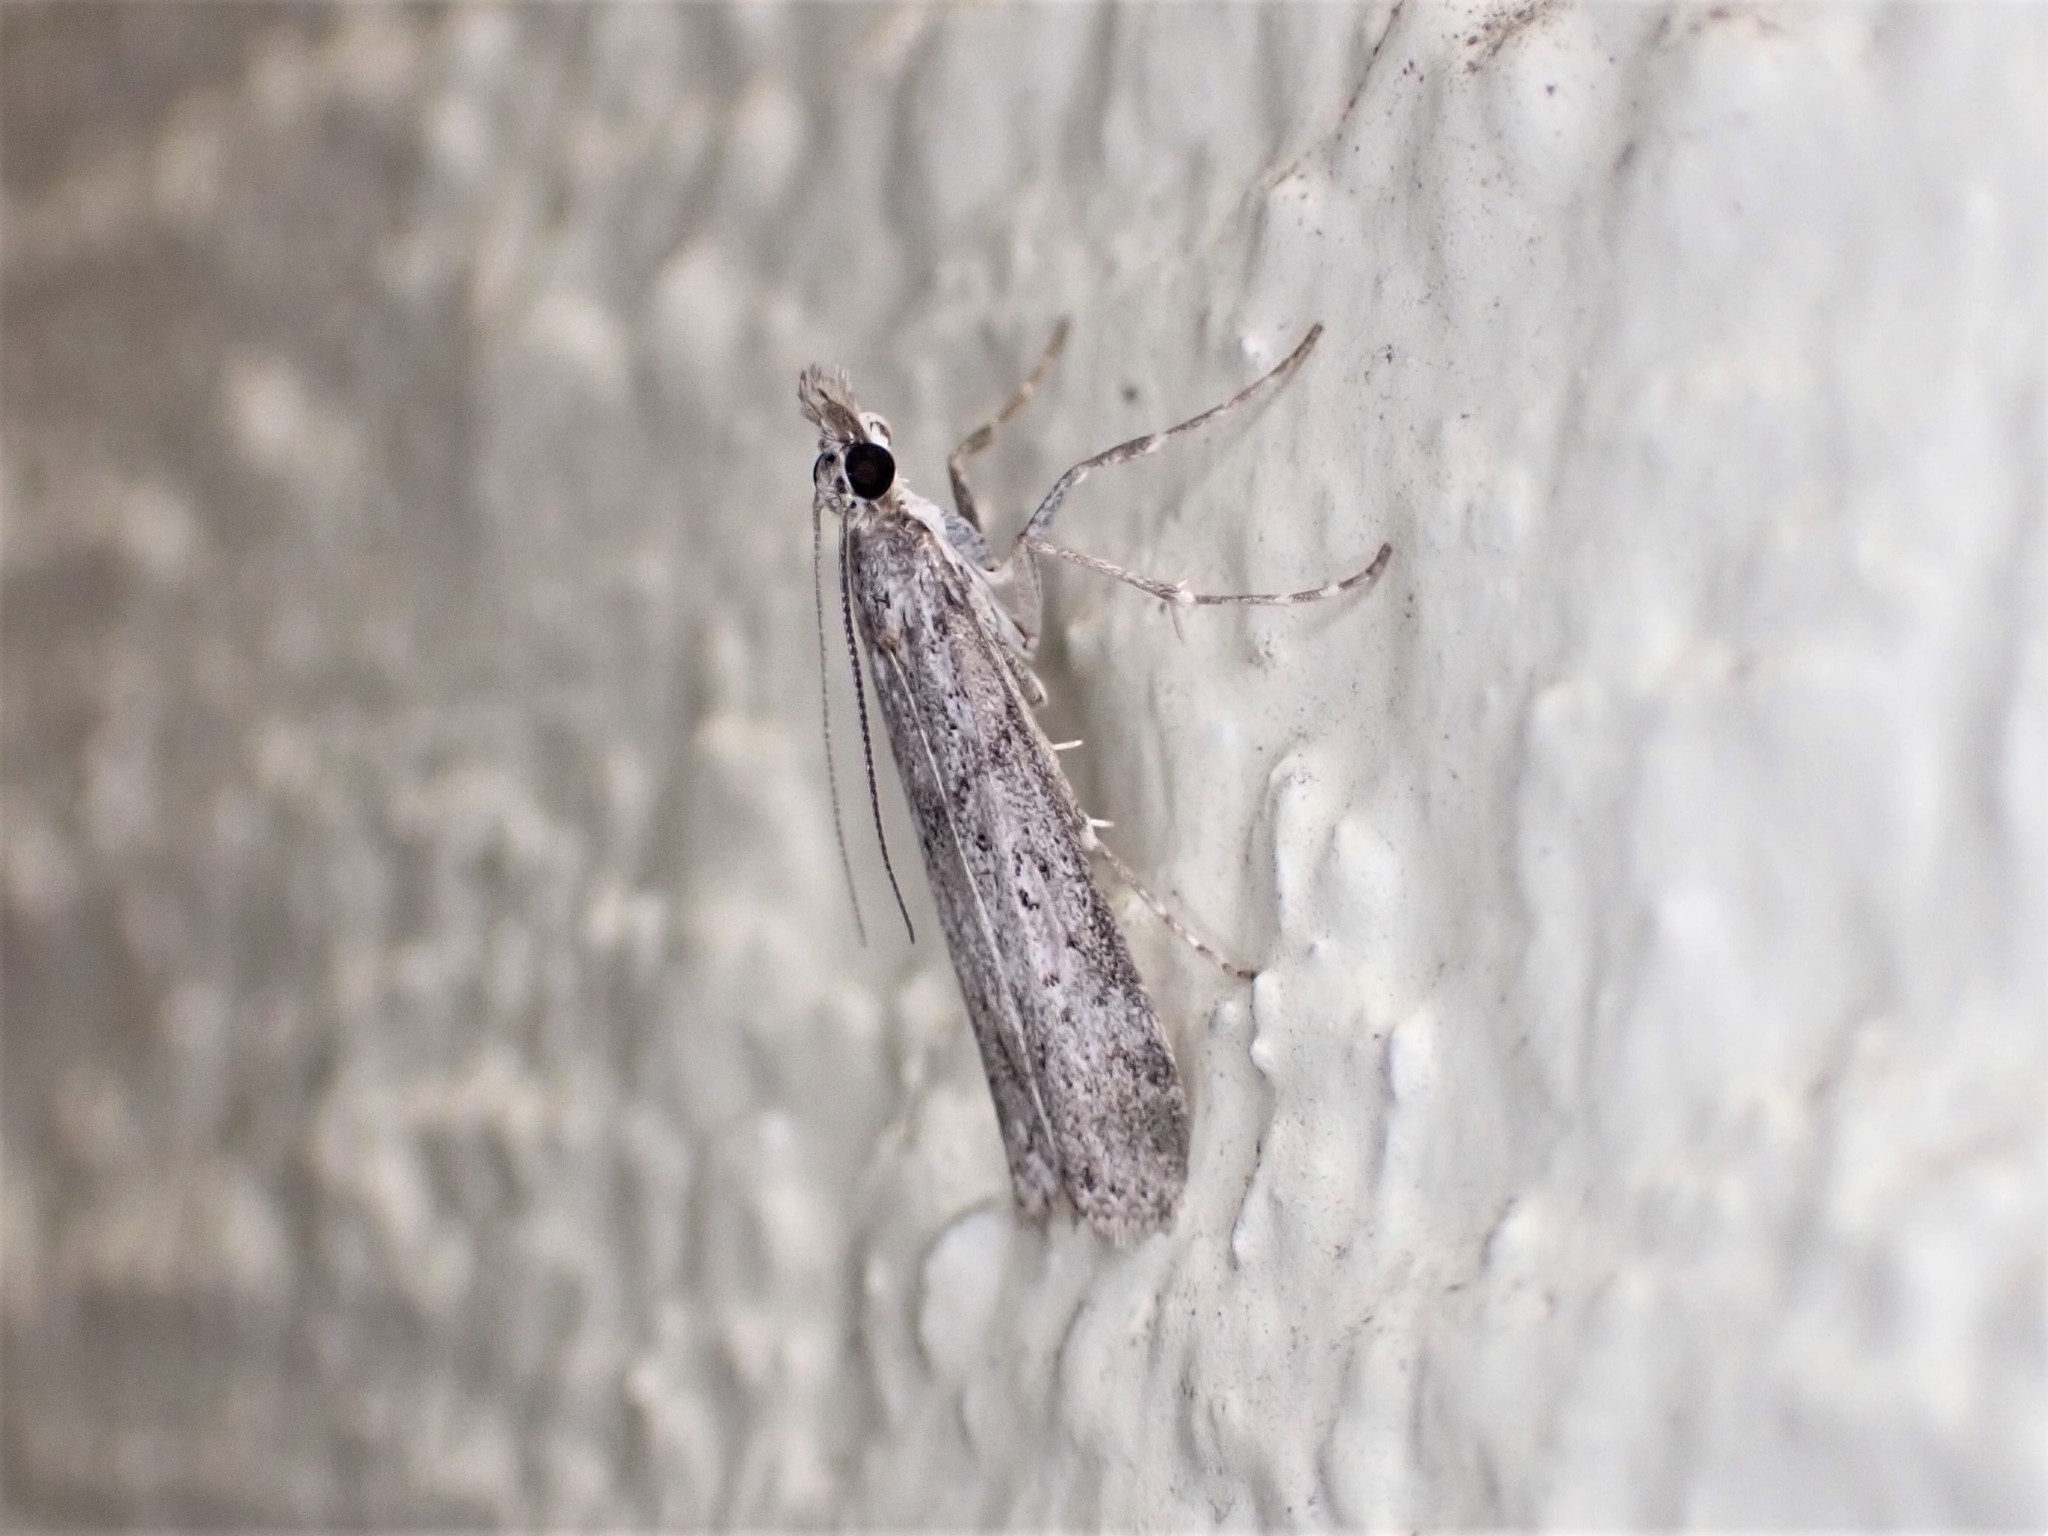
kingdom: Animalia
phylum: Arthropoda
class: Insecta
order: Lepidoptera
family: Crambidae
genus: Eudonia
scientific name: Eudonia leptalea
